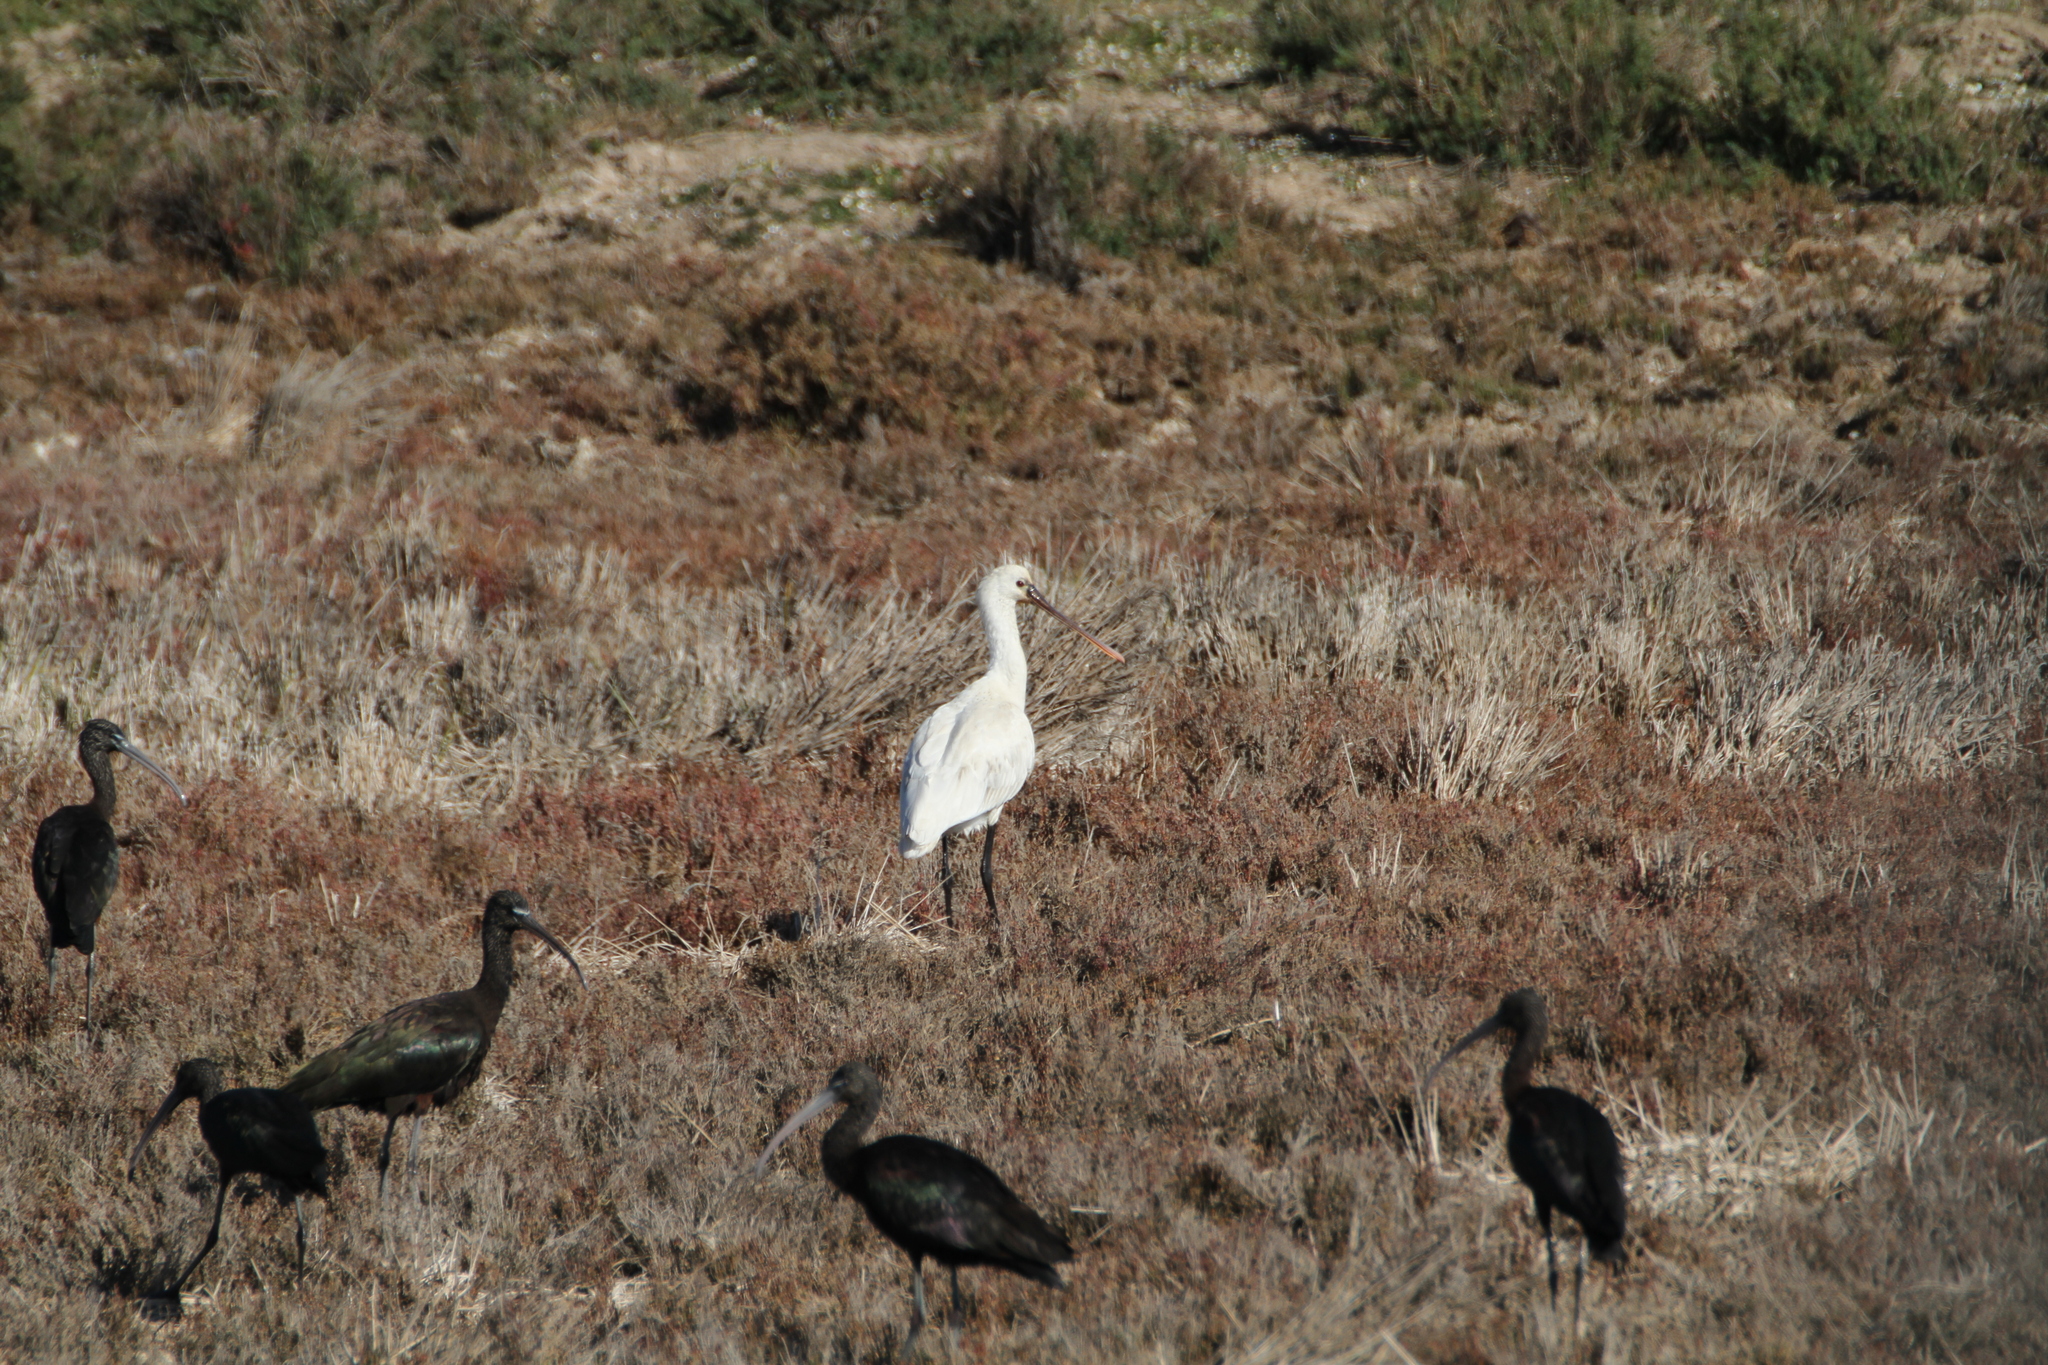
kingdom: Animalia
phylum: Chordata
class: Aves
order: Pelecaniformes
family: Threskiornithidae
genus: Platalea
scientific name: Platalea leucorodia
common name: Eurasian spoonbill
